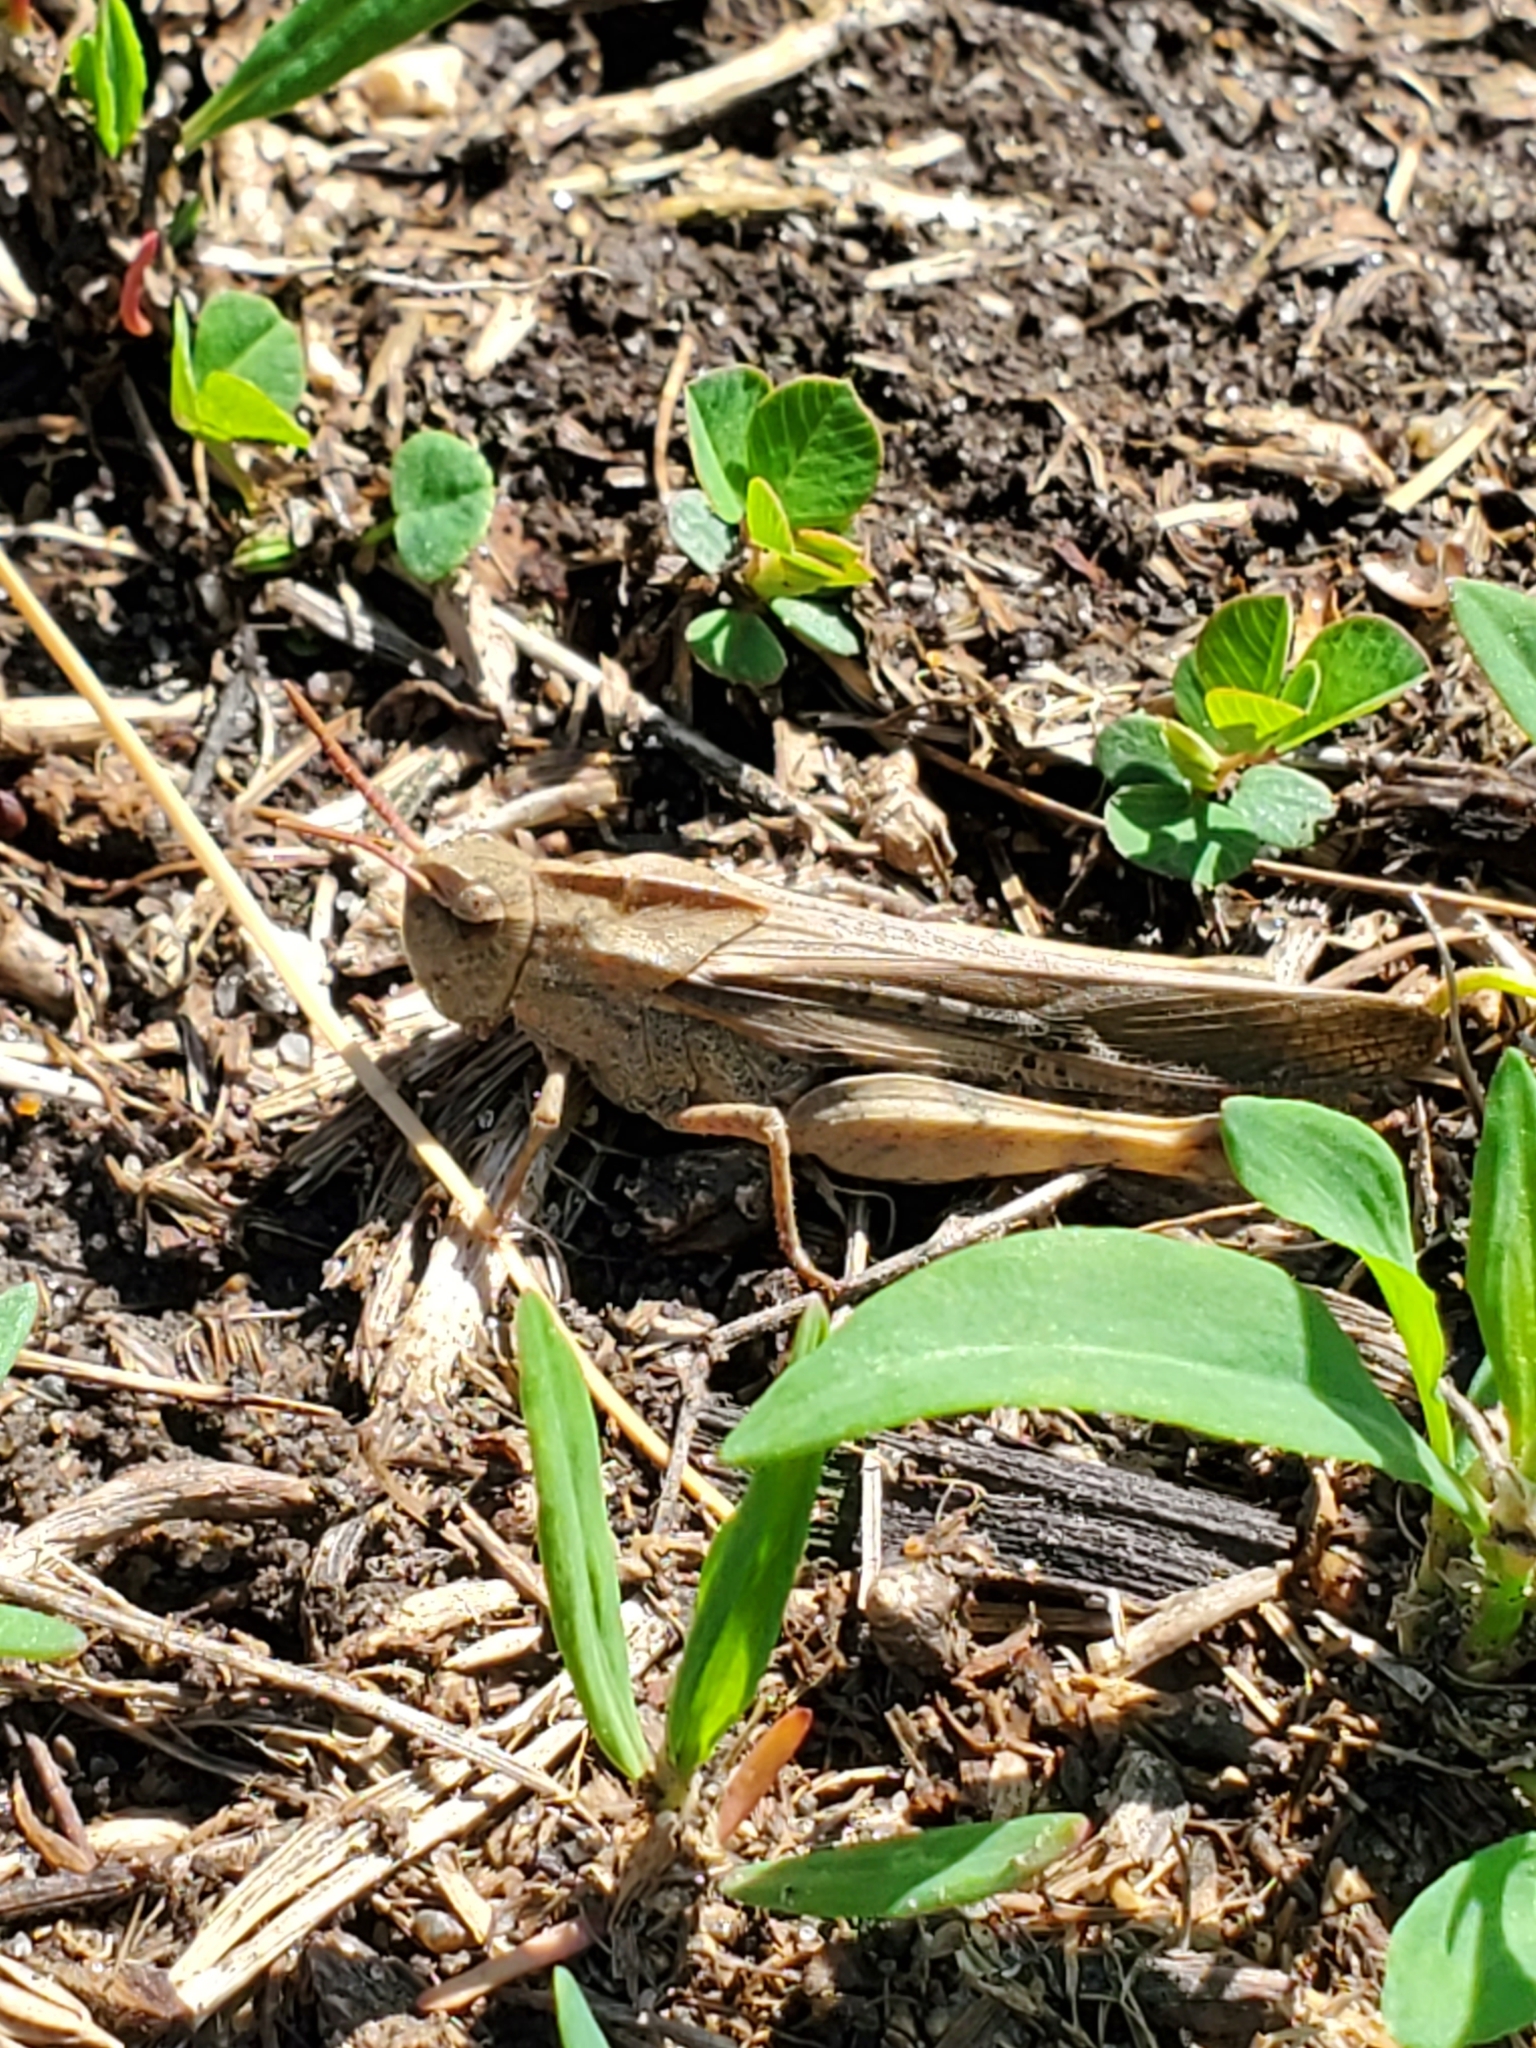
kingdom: Animalia
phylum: Arthropoda
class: Insecta
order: Orthoptera
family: Acrididae
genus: Chortophaga
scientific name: Chortophaga viridifasciata
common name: Green-striped grasshopper
